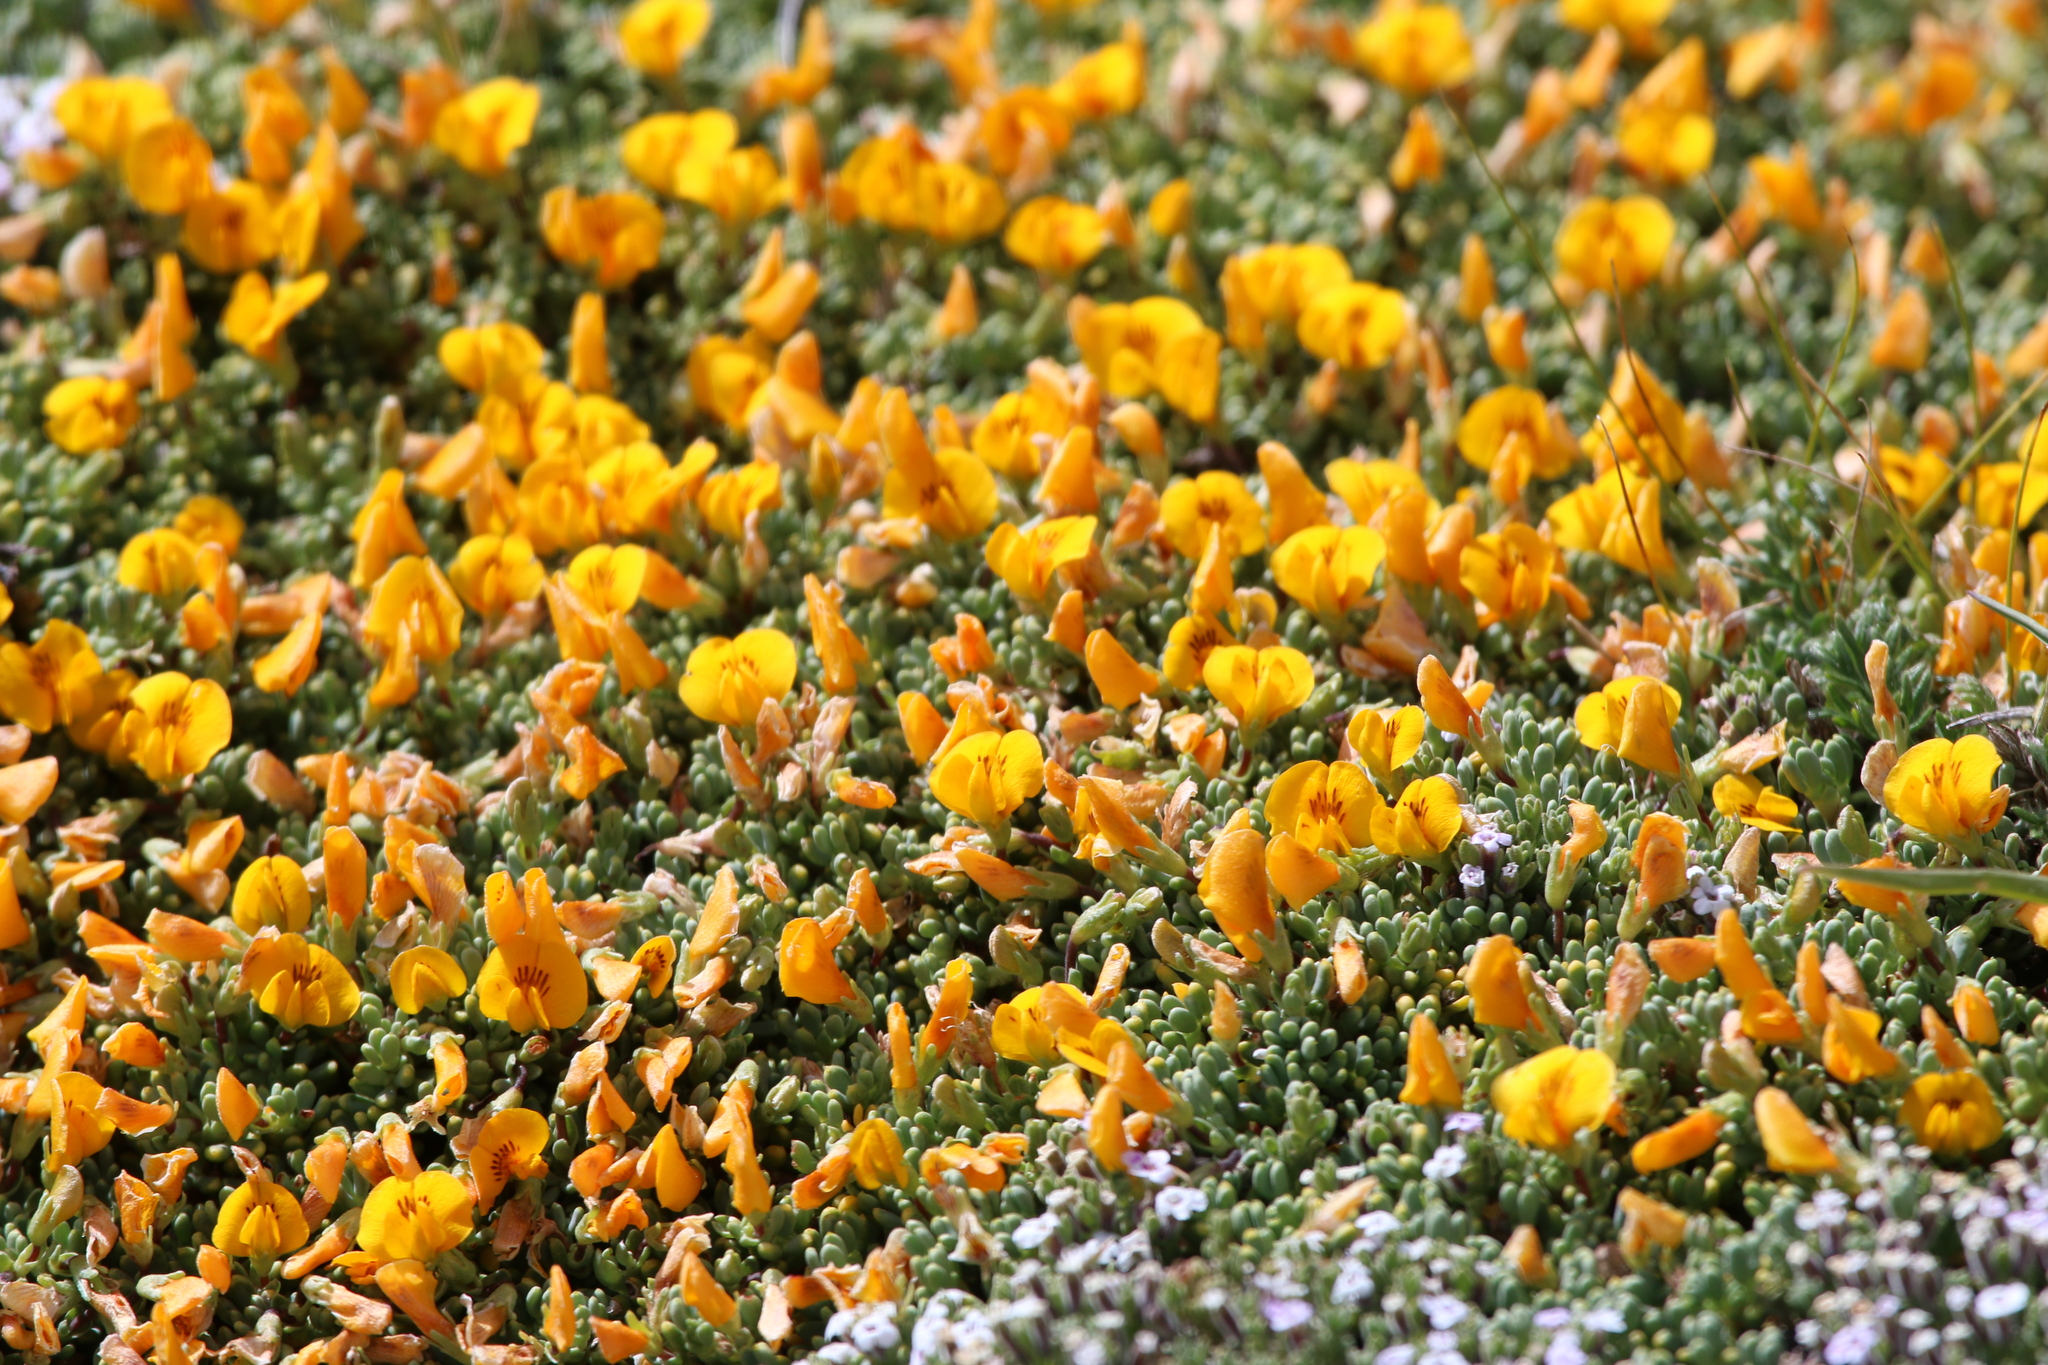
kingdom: Plantae
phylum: Tracheophyta
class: Magnoliopsida
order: Fabales
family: Fabaceae
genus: Adesmia
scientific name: Adesmia salicornioides
